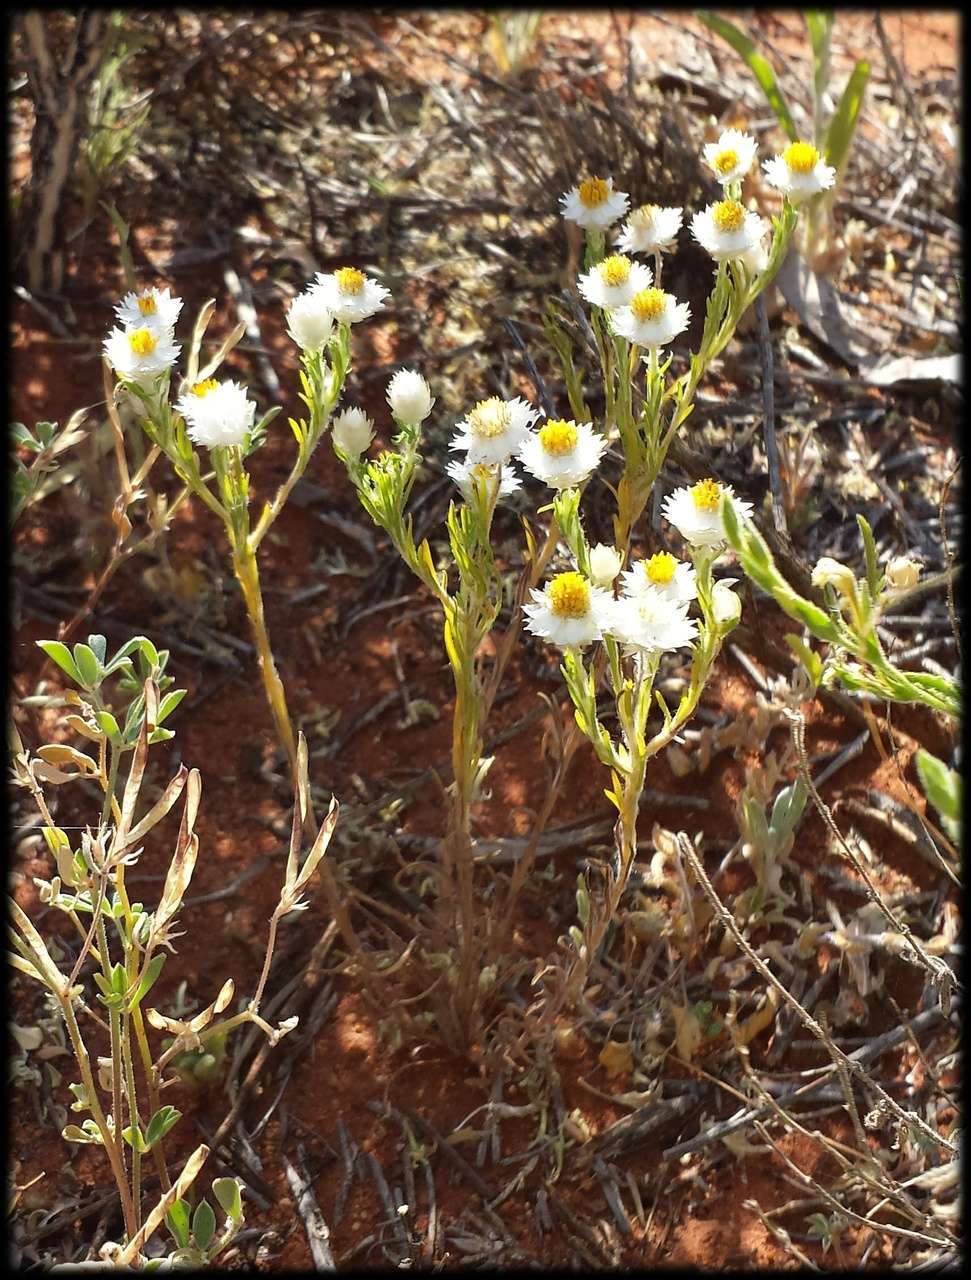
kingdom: Plantae
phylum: Tracheophyta
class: Magnoliopsida
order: Asterales
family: Asteraceae
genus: Rhodanthe
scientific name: Rhodanthe floribunda
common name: Flowery sunray
